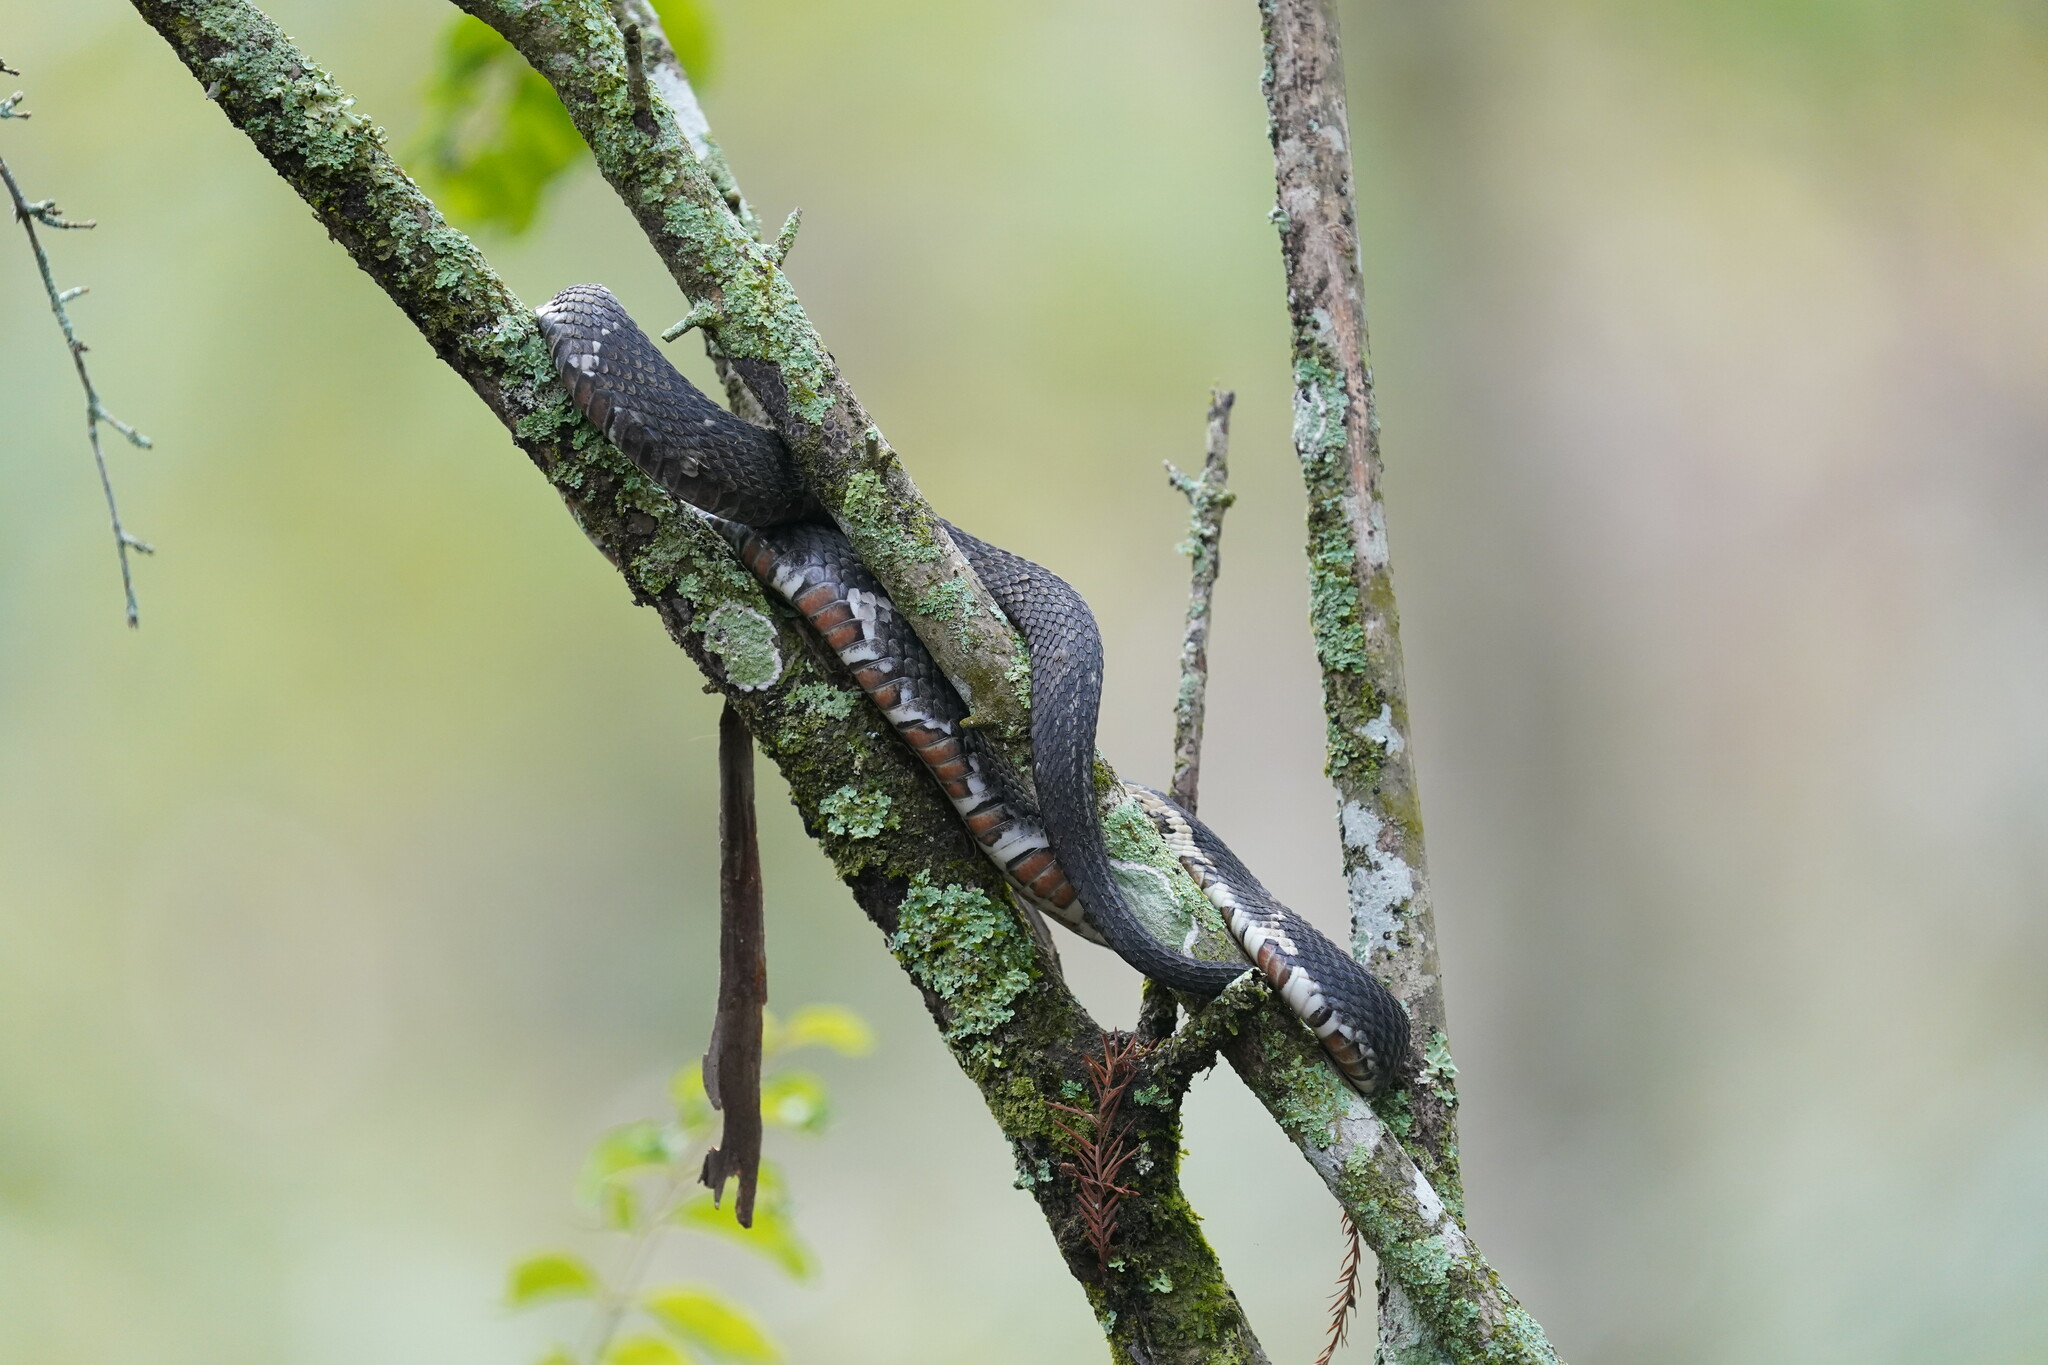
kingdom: Animalia
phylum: Chordata
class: Squamata
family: Colubridae
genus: Nerodia
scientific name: Nerodia fasciata
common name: Southern water snake
